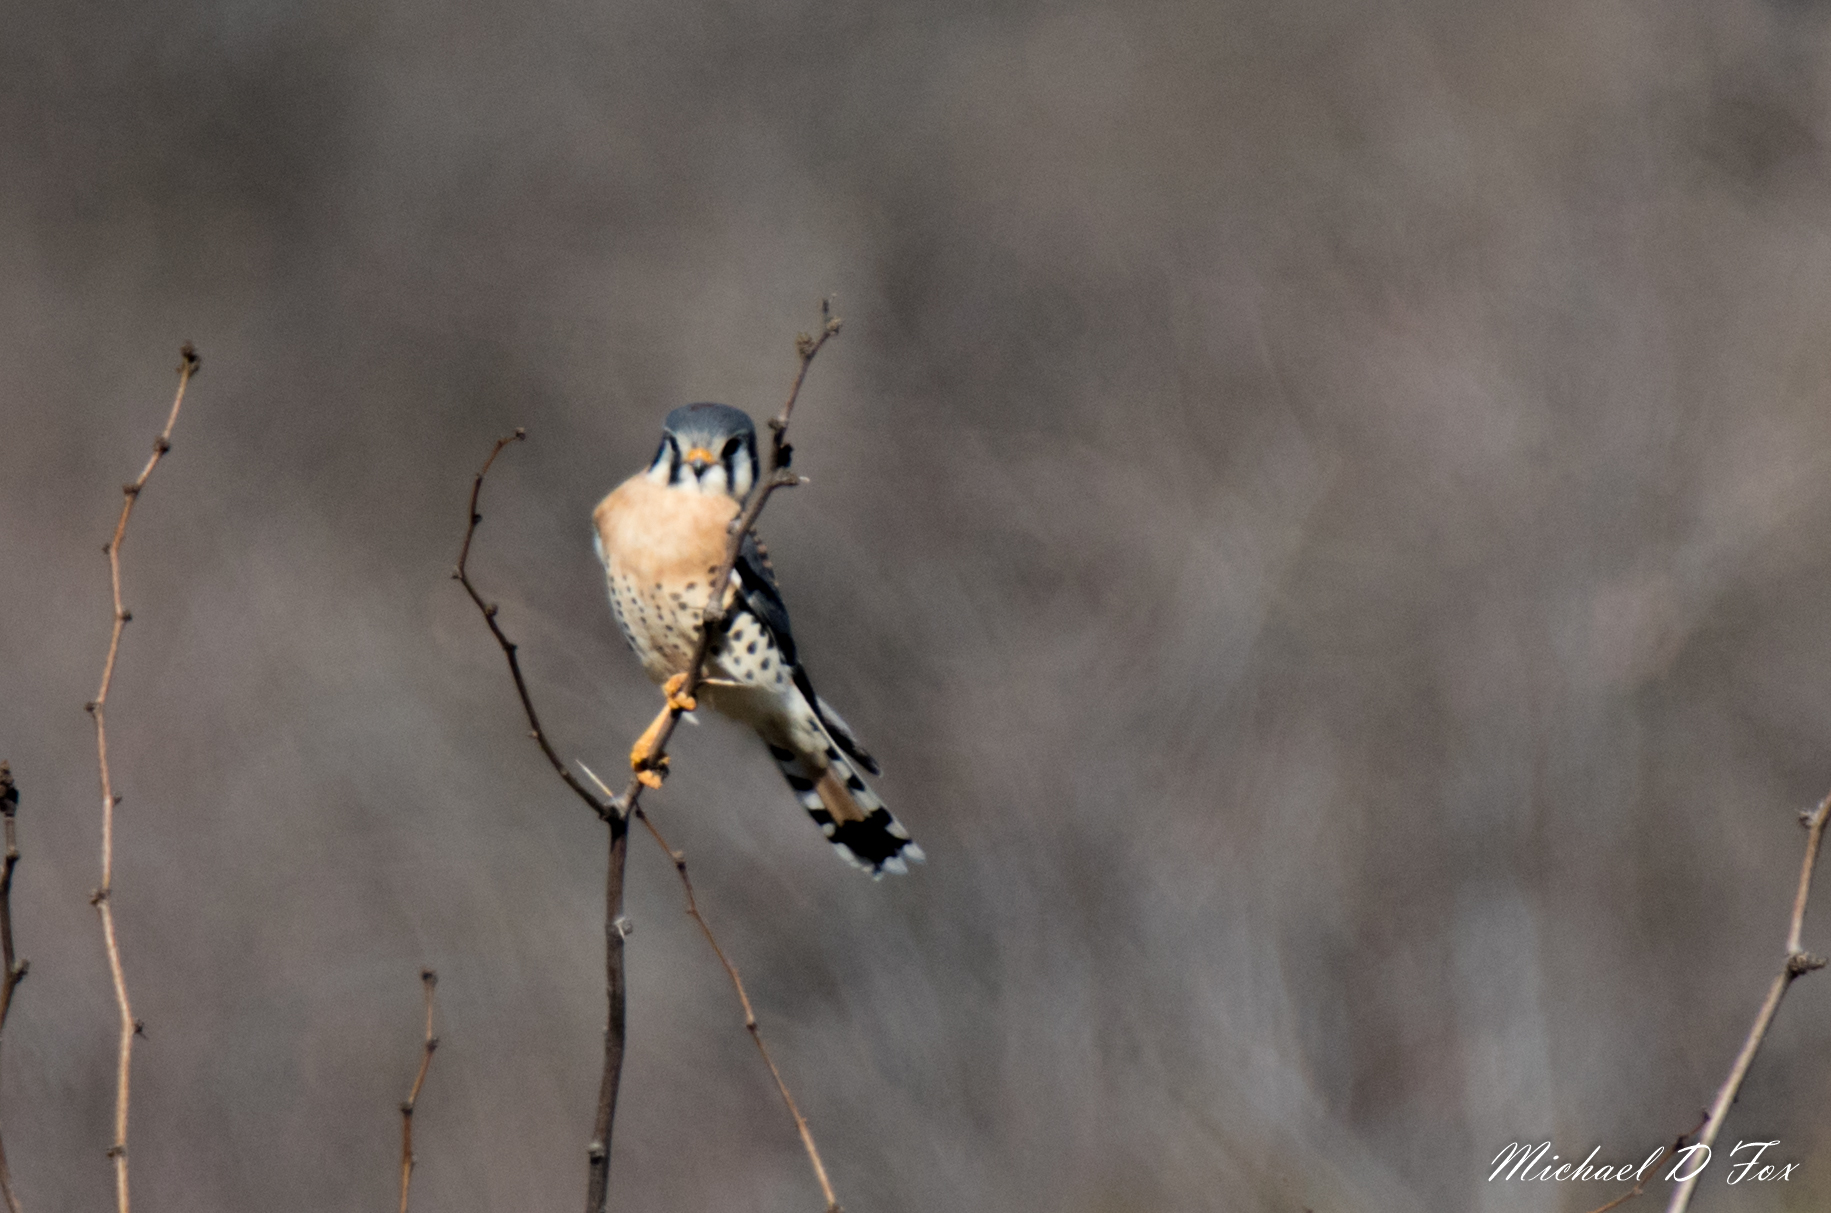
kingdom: Animalia
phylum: Chordata
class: Aves
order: Falconiformes
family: Falconidae
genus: Falco
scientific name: Falco sparverius
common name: American kestrel
